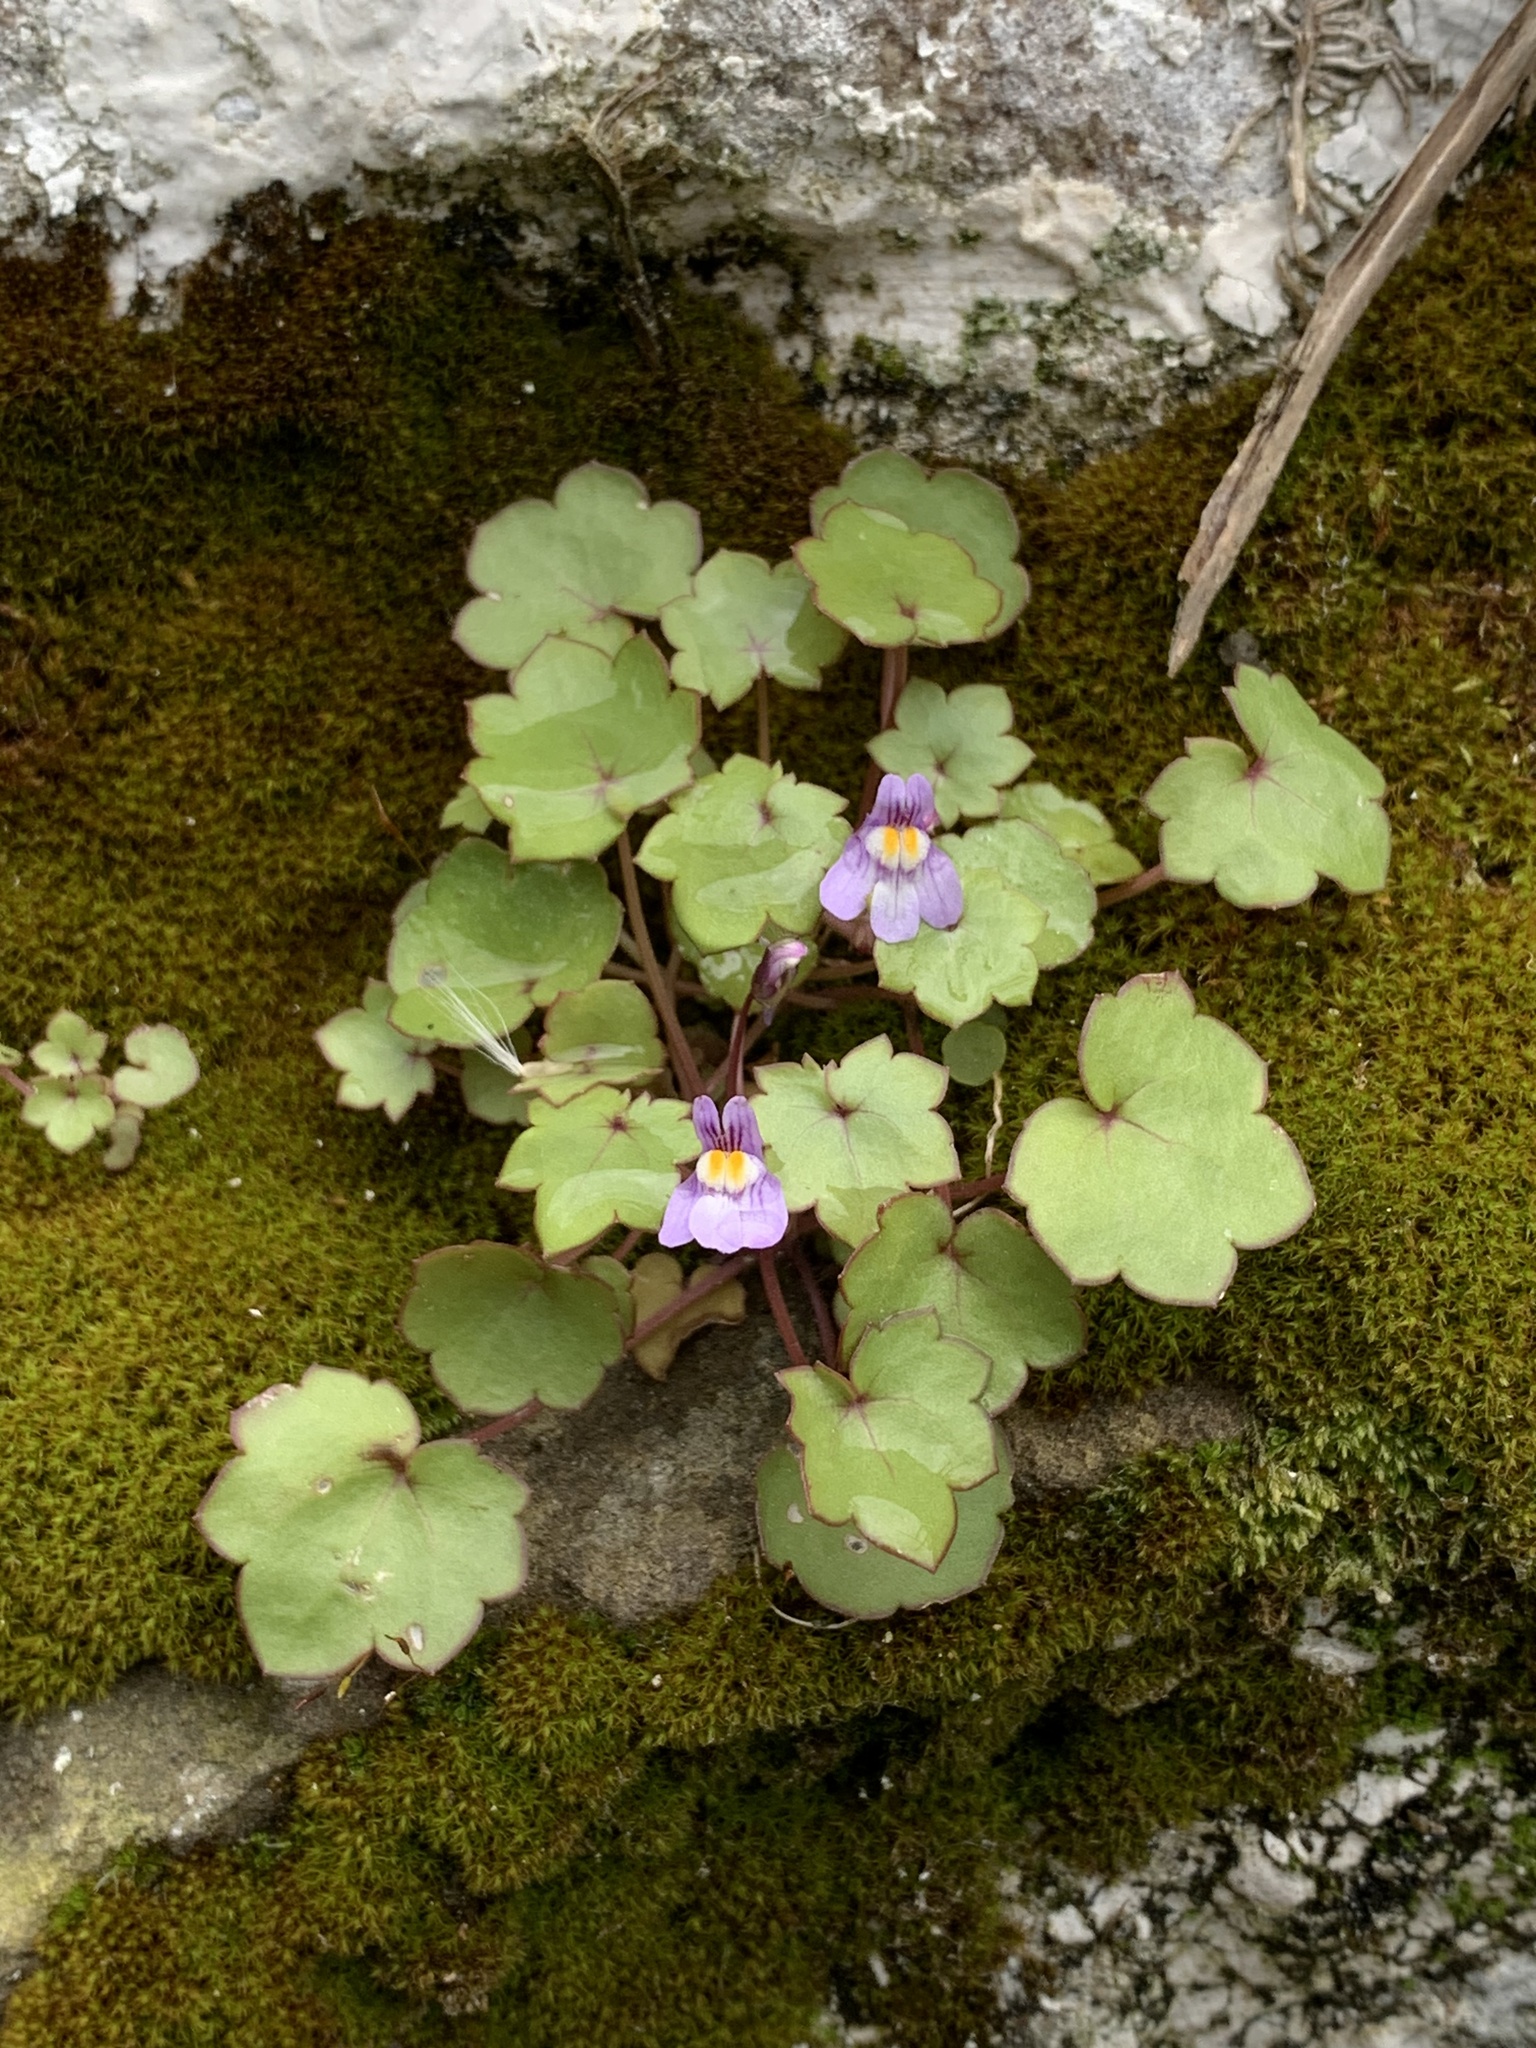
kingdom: Plantae
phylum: Tracheophyta
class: Magnoliopsida
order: Lamiales
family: Plantaginaceae
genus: Cymbalaria
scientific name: Cymbalaria muralis
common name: Ivy-leaved toadflax
